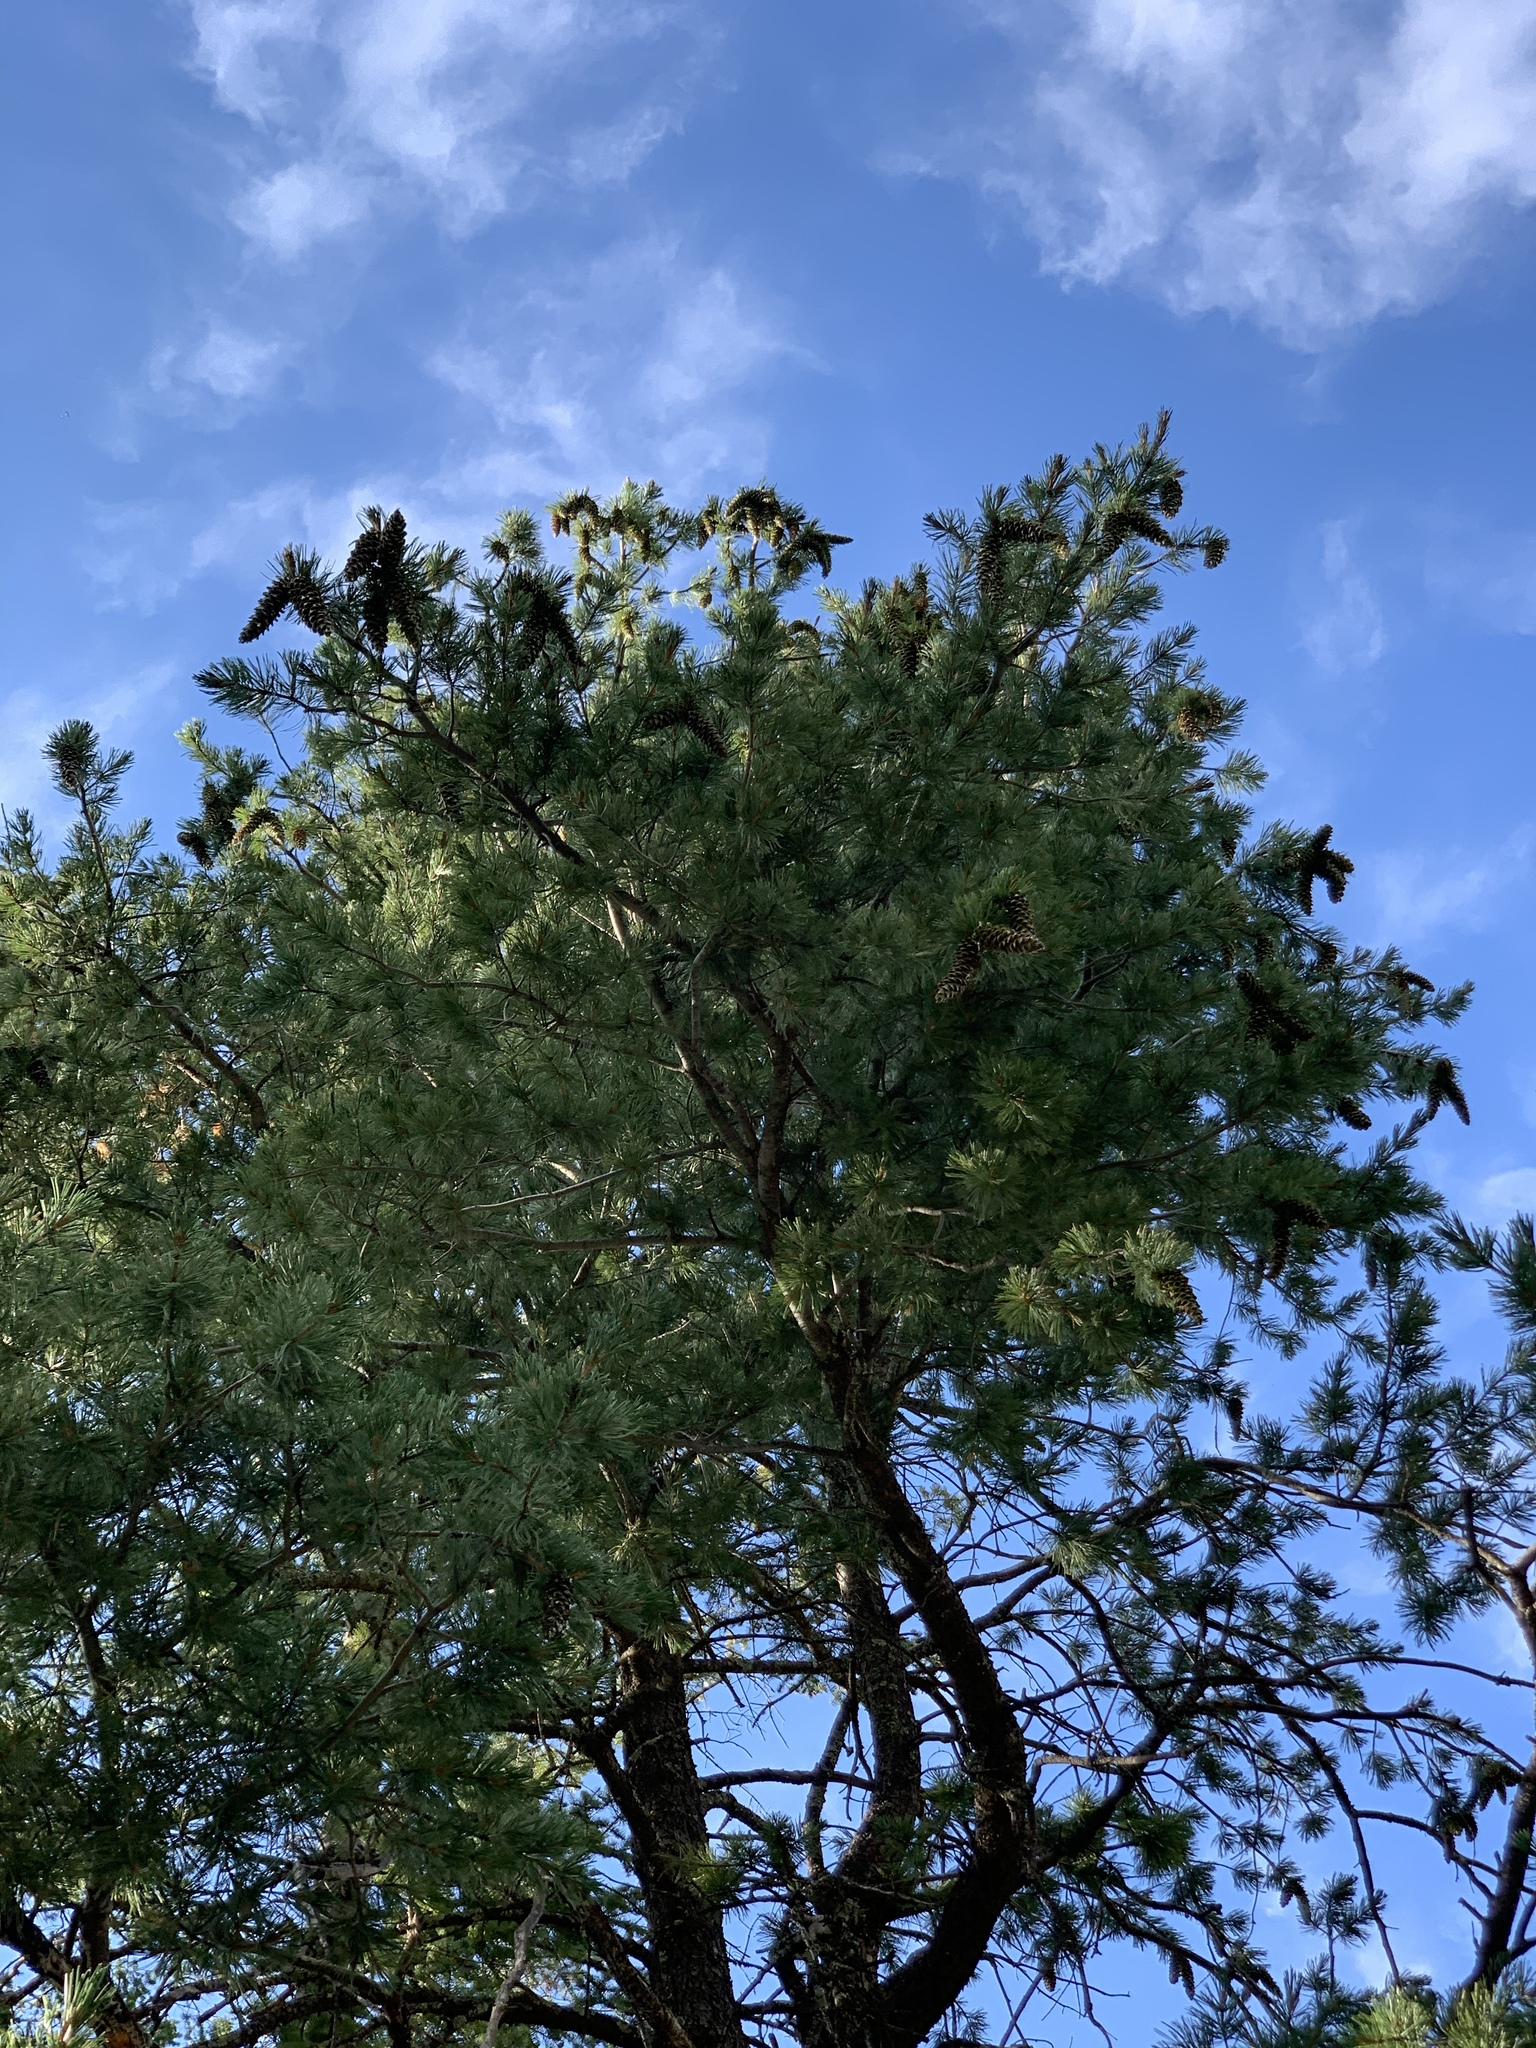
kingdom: Plantae
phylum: Tracheophyta
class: Pinopsida
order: Pinales
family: Pinaceae
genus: Pinus
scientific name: Pinus strobiformis
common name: Southwestern white pine
